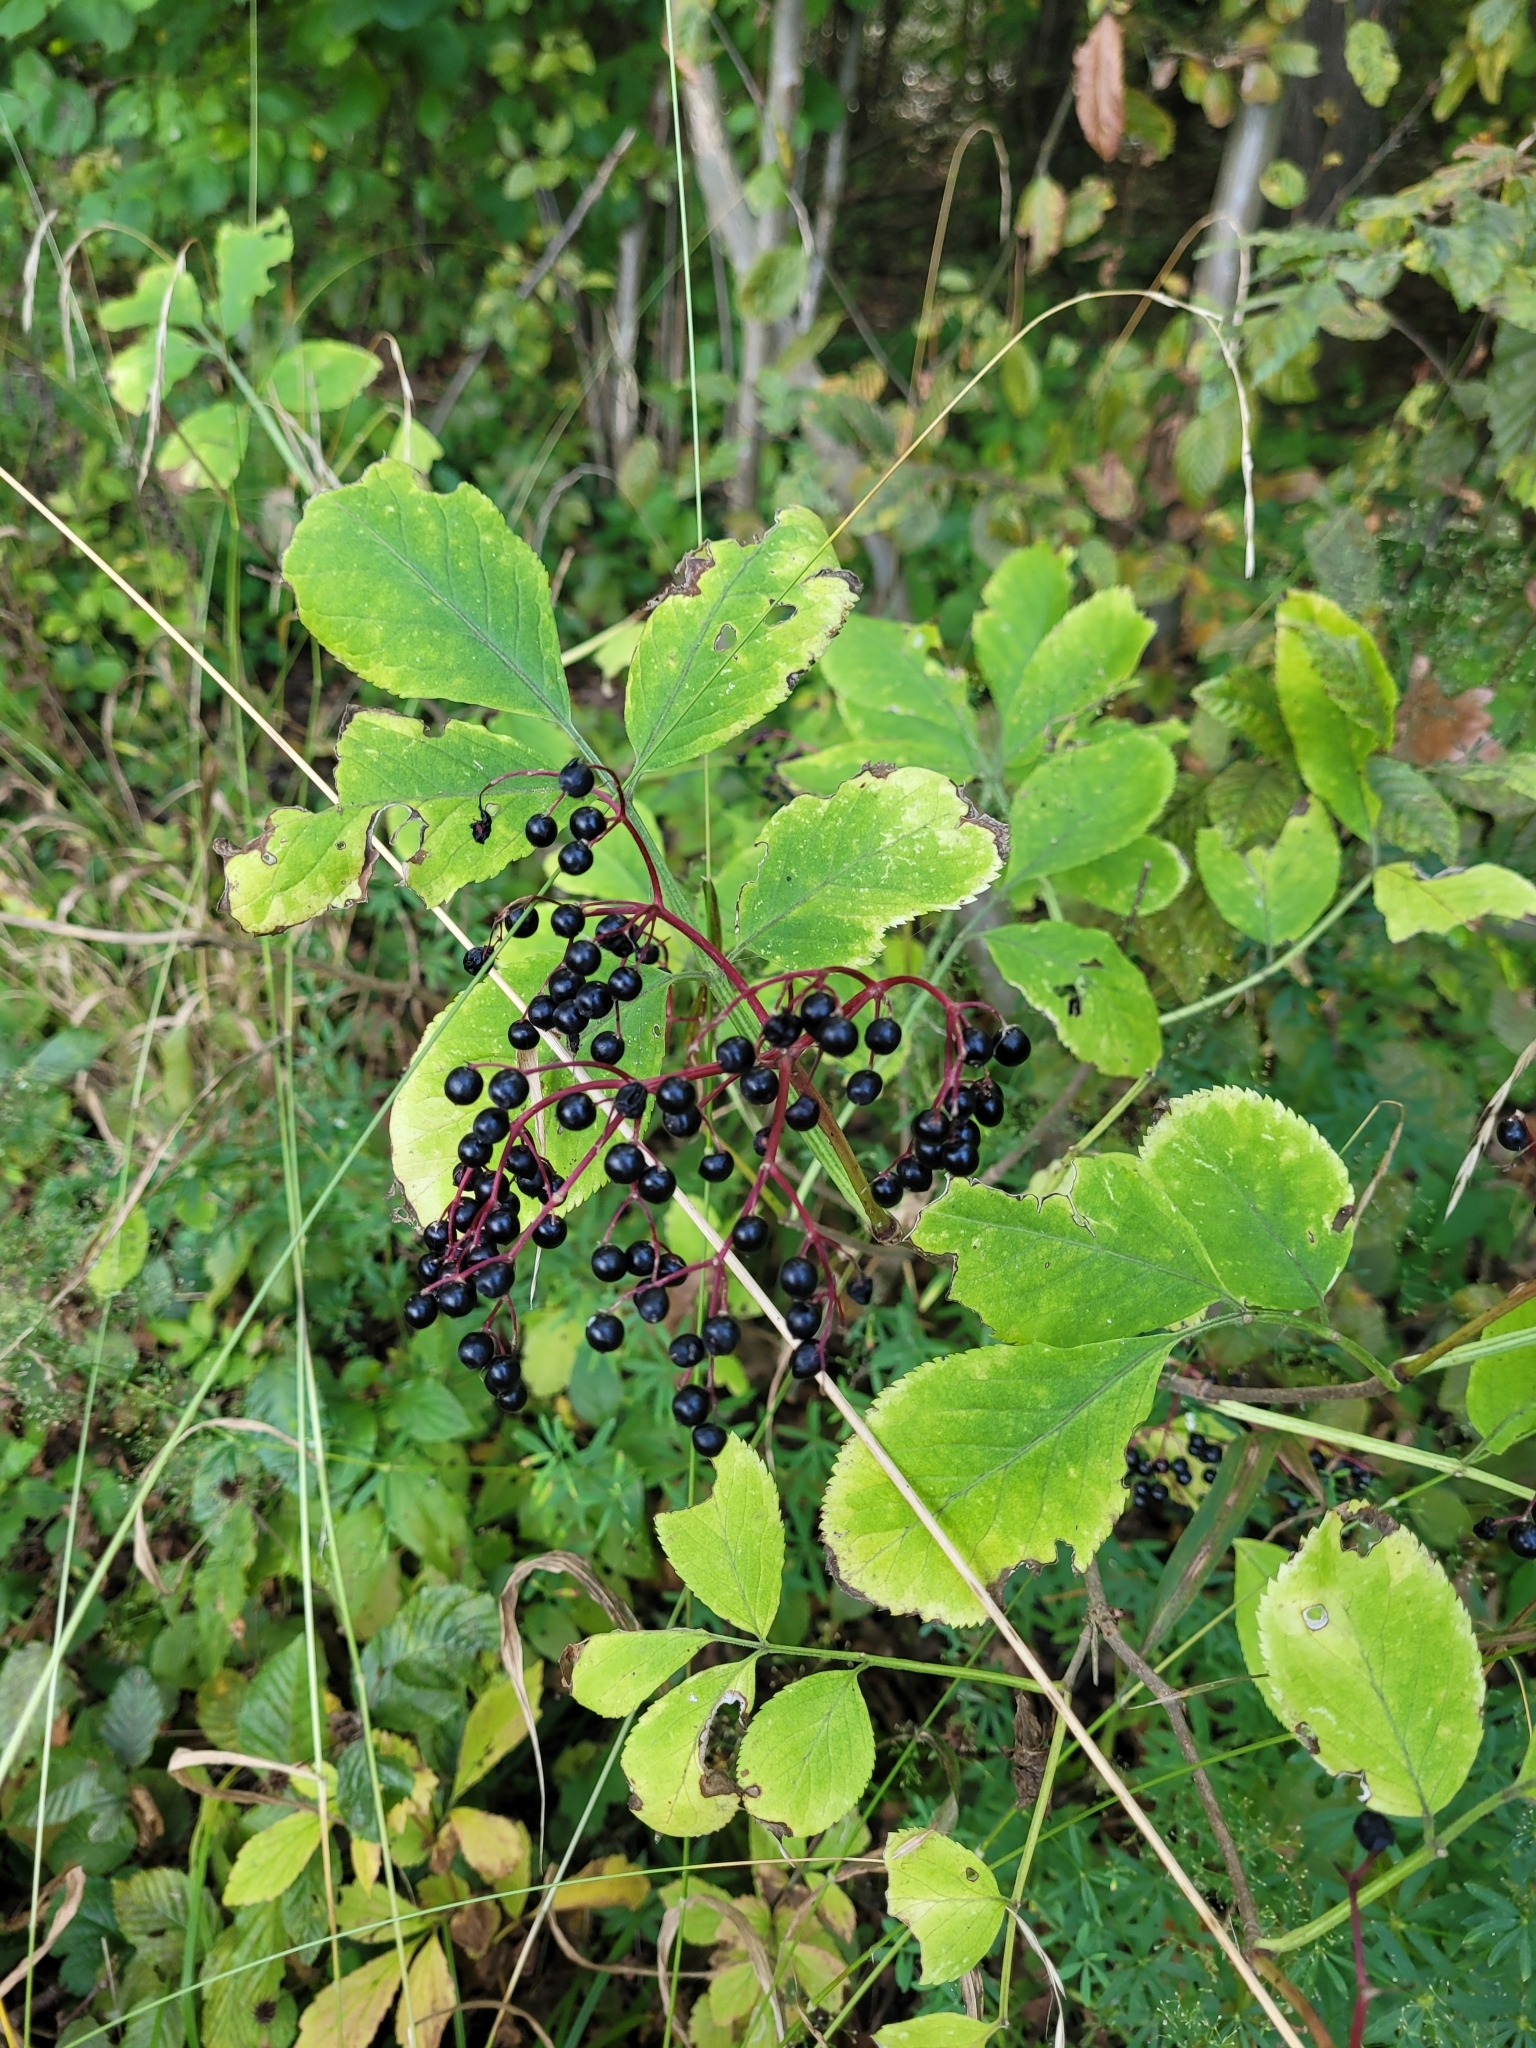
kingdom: Plantae
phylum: Tracheophyta
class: Magnoliopsida
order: Dipsacales
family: Viburnaceae
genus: Sambucus
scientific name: Sambucus nigra
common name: Elder
